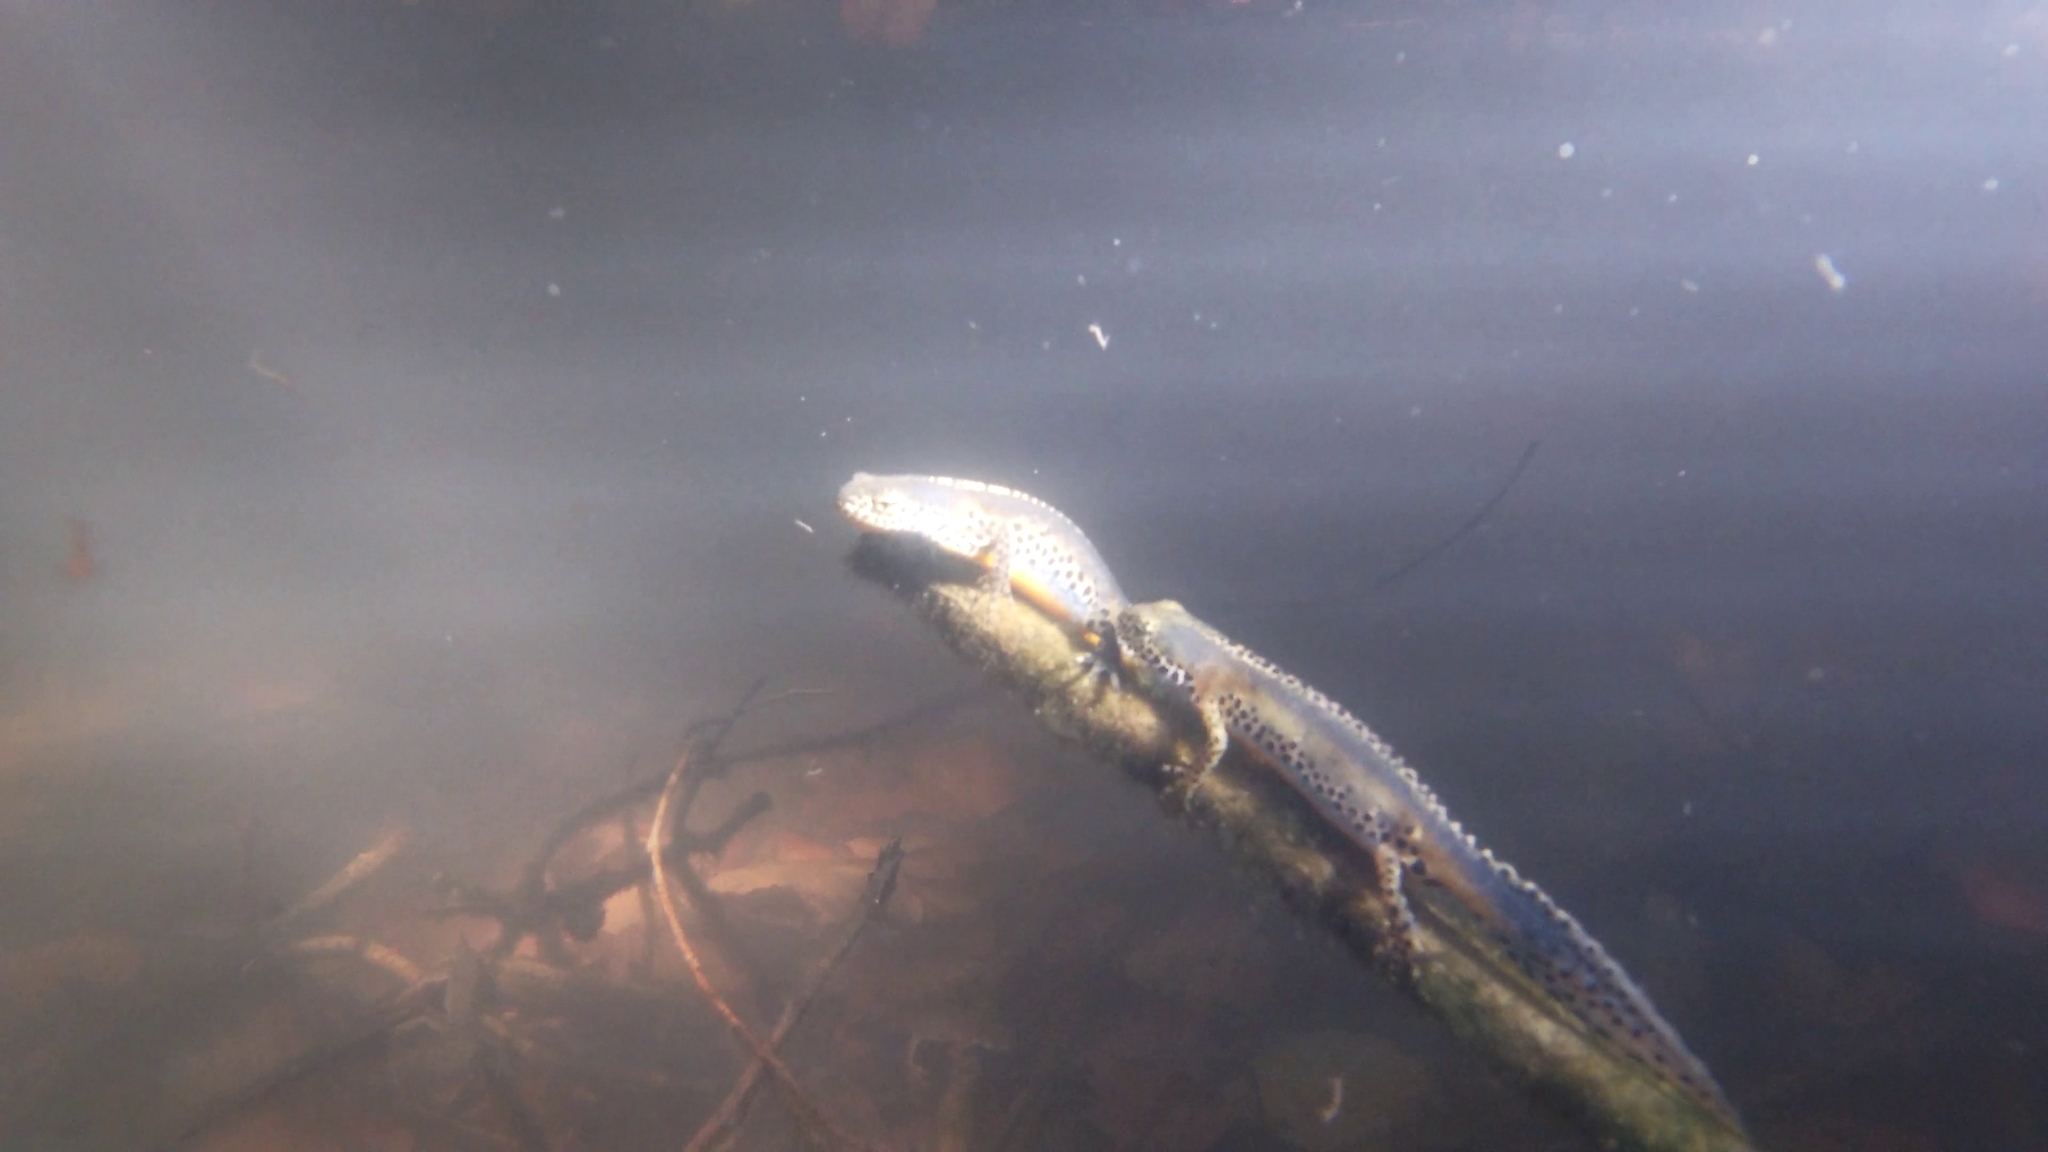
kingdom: Animalia
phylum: Chordata
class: Amphibia
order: Caudata
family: Salamandridae
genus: Ichthyosaura
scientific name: Ichthyosaura alpestris
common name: Alpine newt
